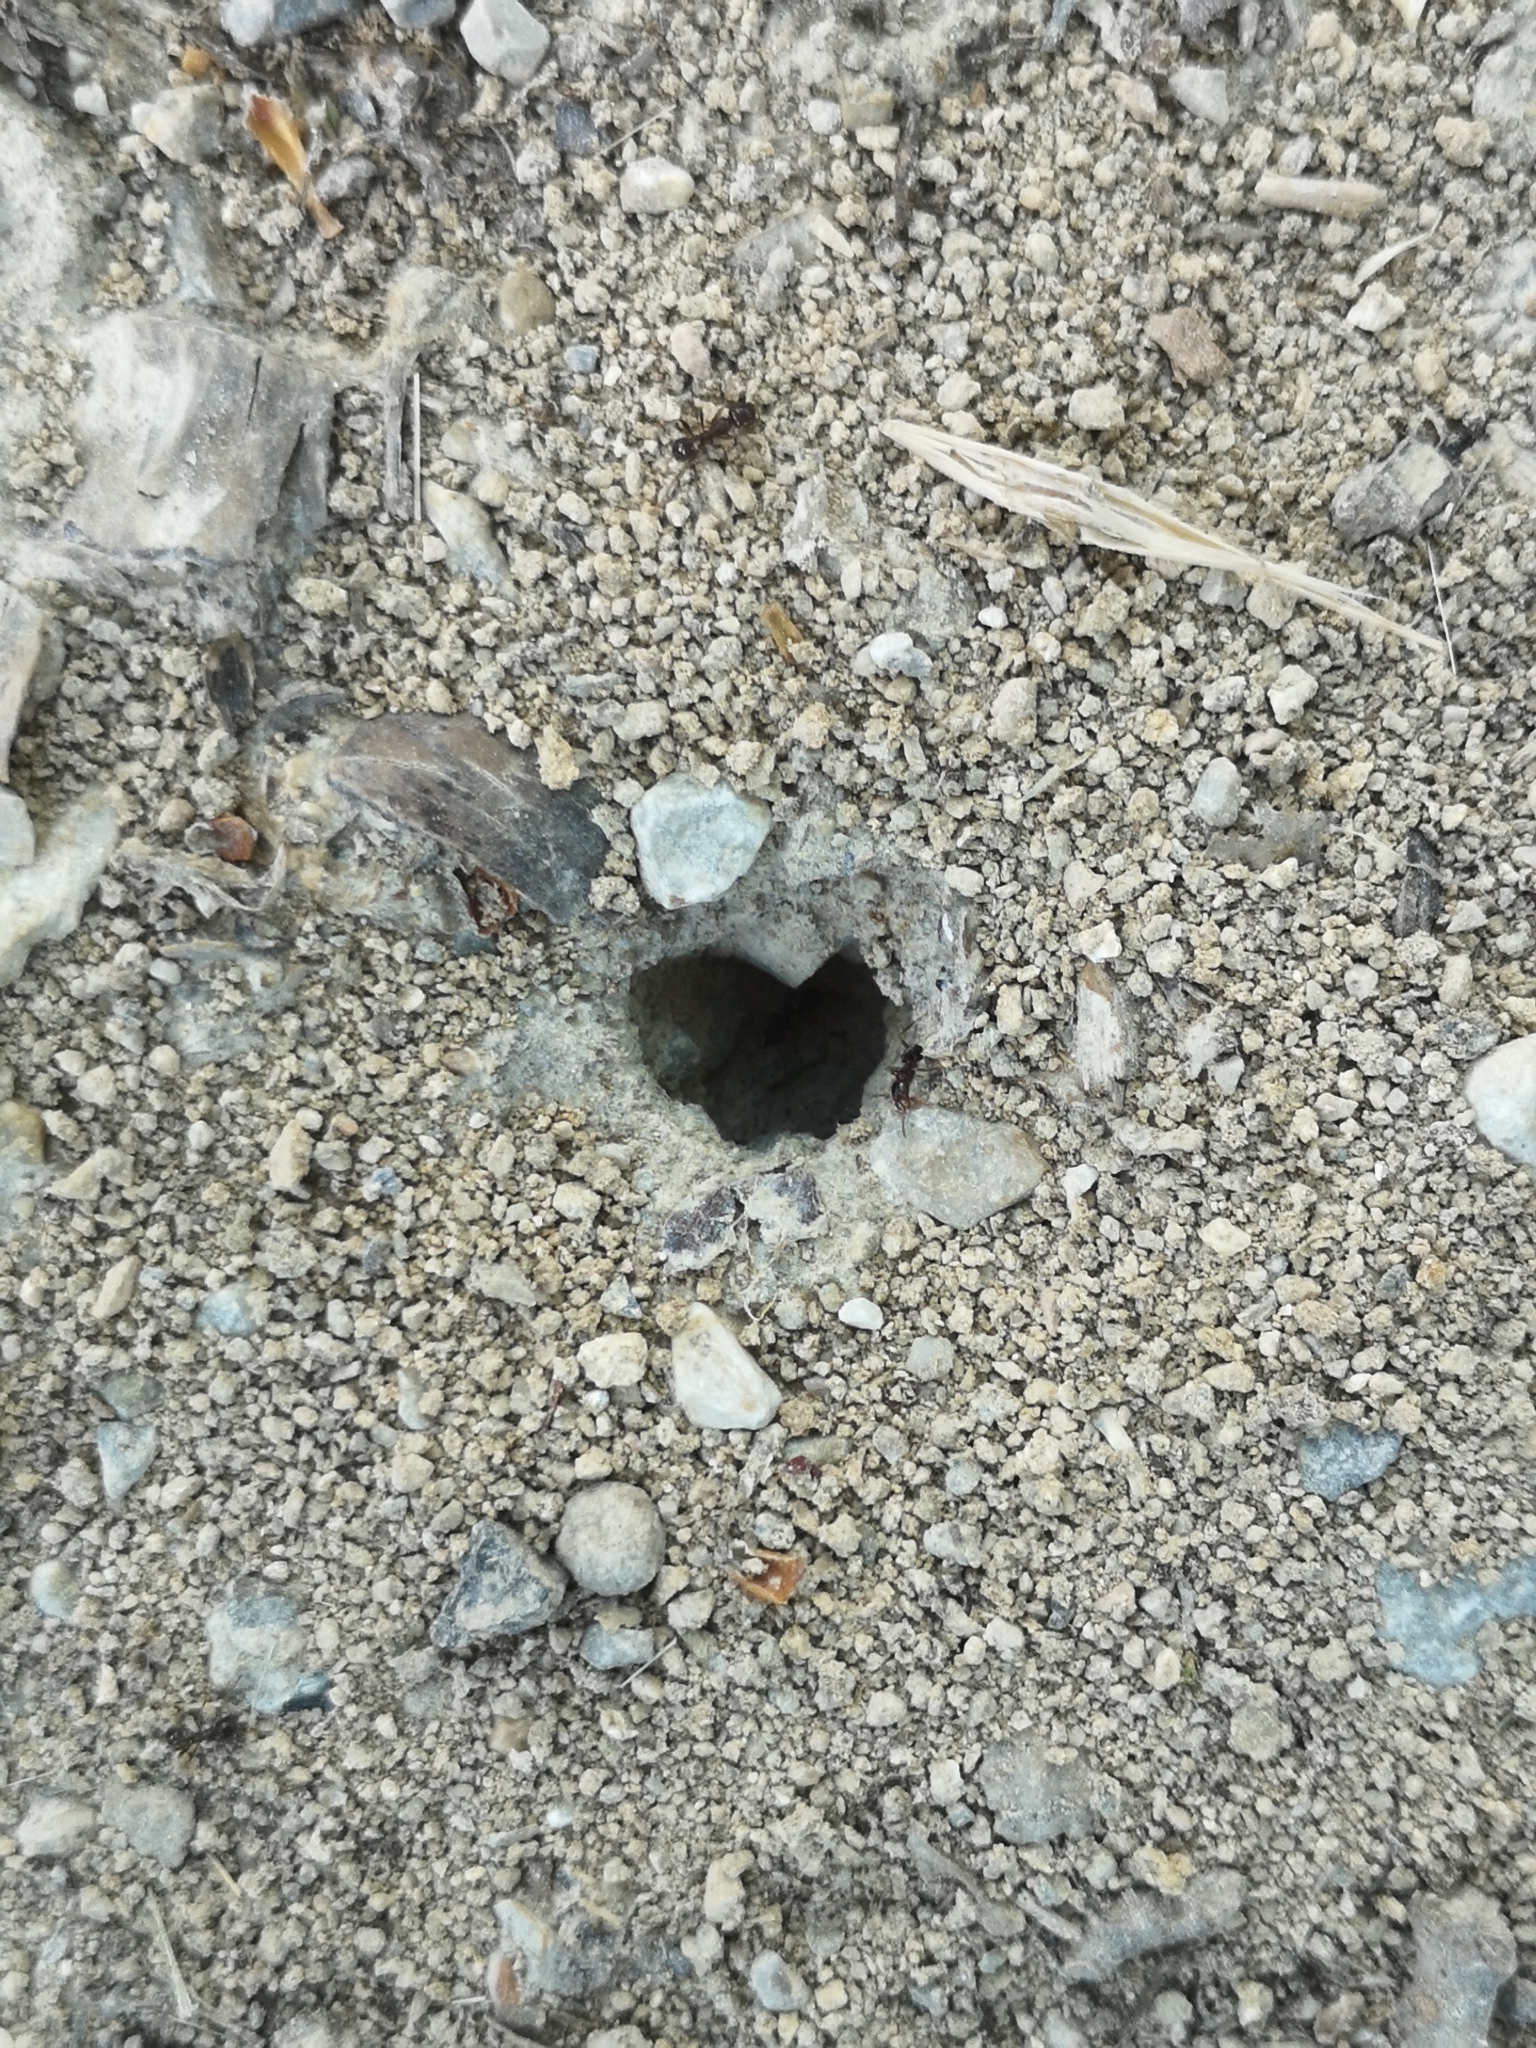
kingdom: Animalia
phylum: Arthropoda
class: Insecta
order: Hymenoptera
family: Formicidae
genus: Messor
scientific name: Messor ibericus
